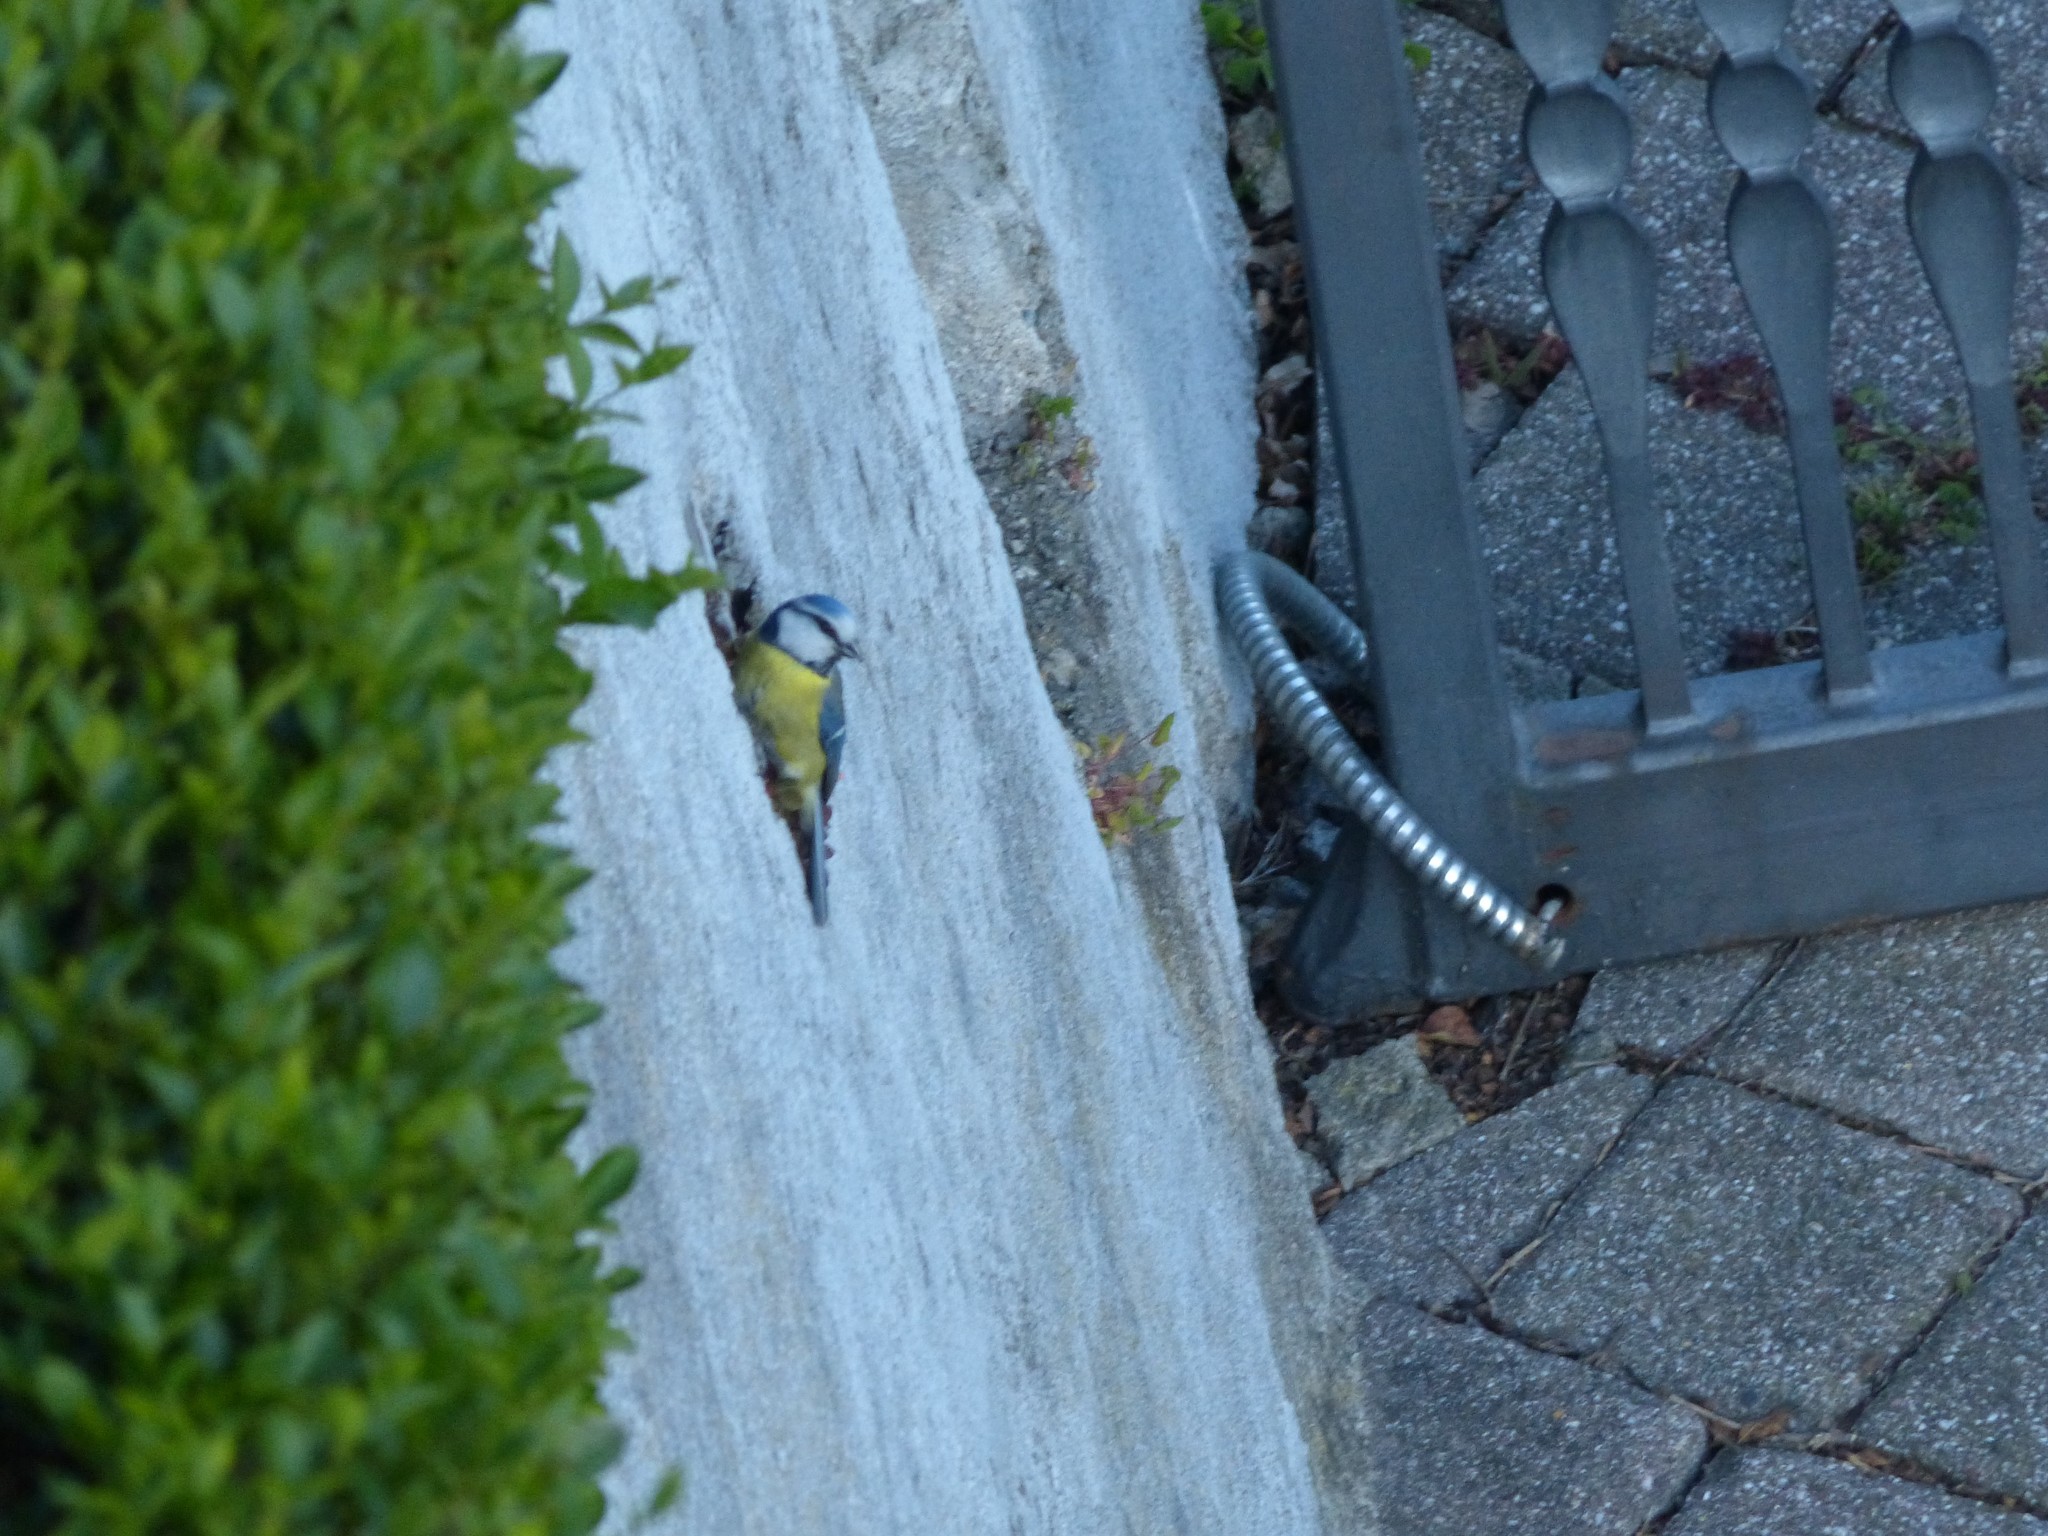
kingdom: Animalia
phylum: Chordata
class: Aves
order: Passeriformes
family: Paridae
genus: Cyanistes
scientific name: Cyanistes caeruleus
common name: Eurasian blue tit
